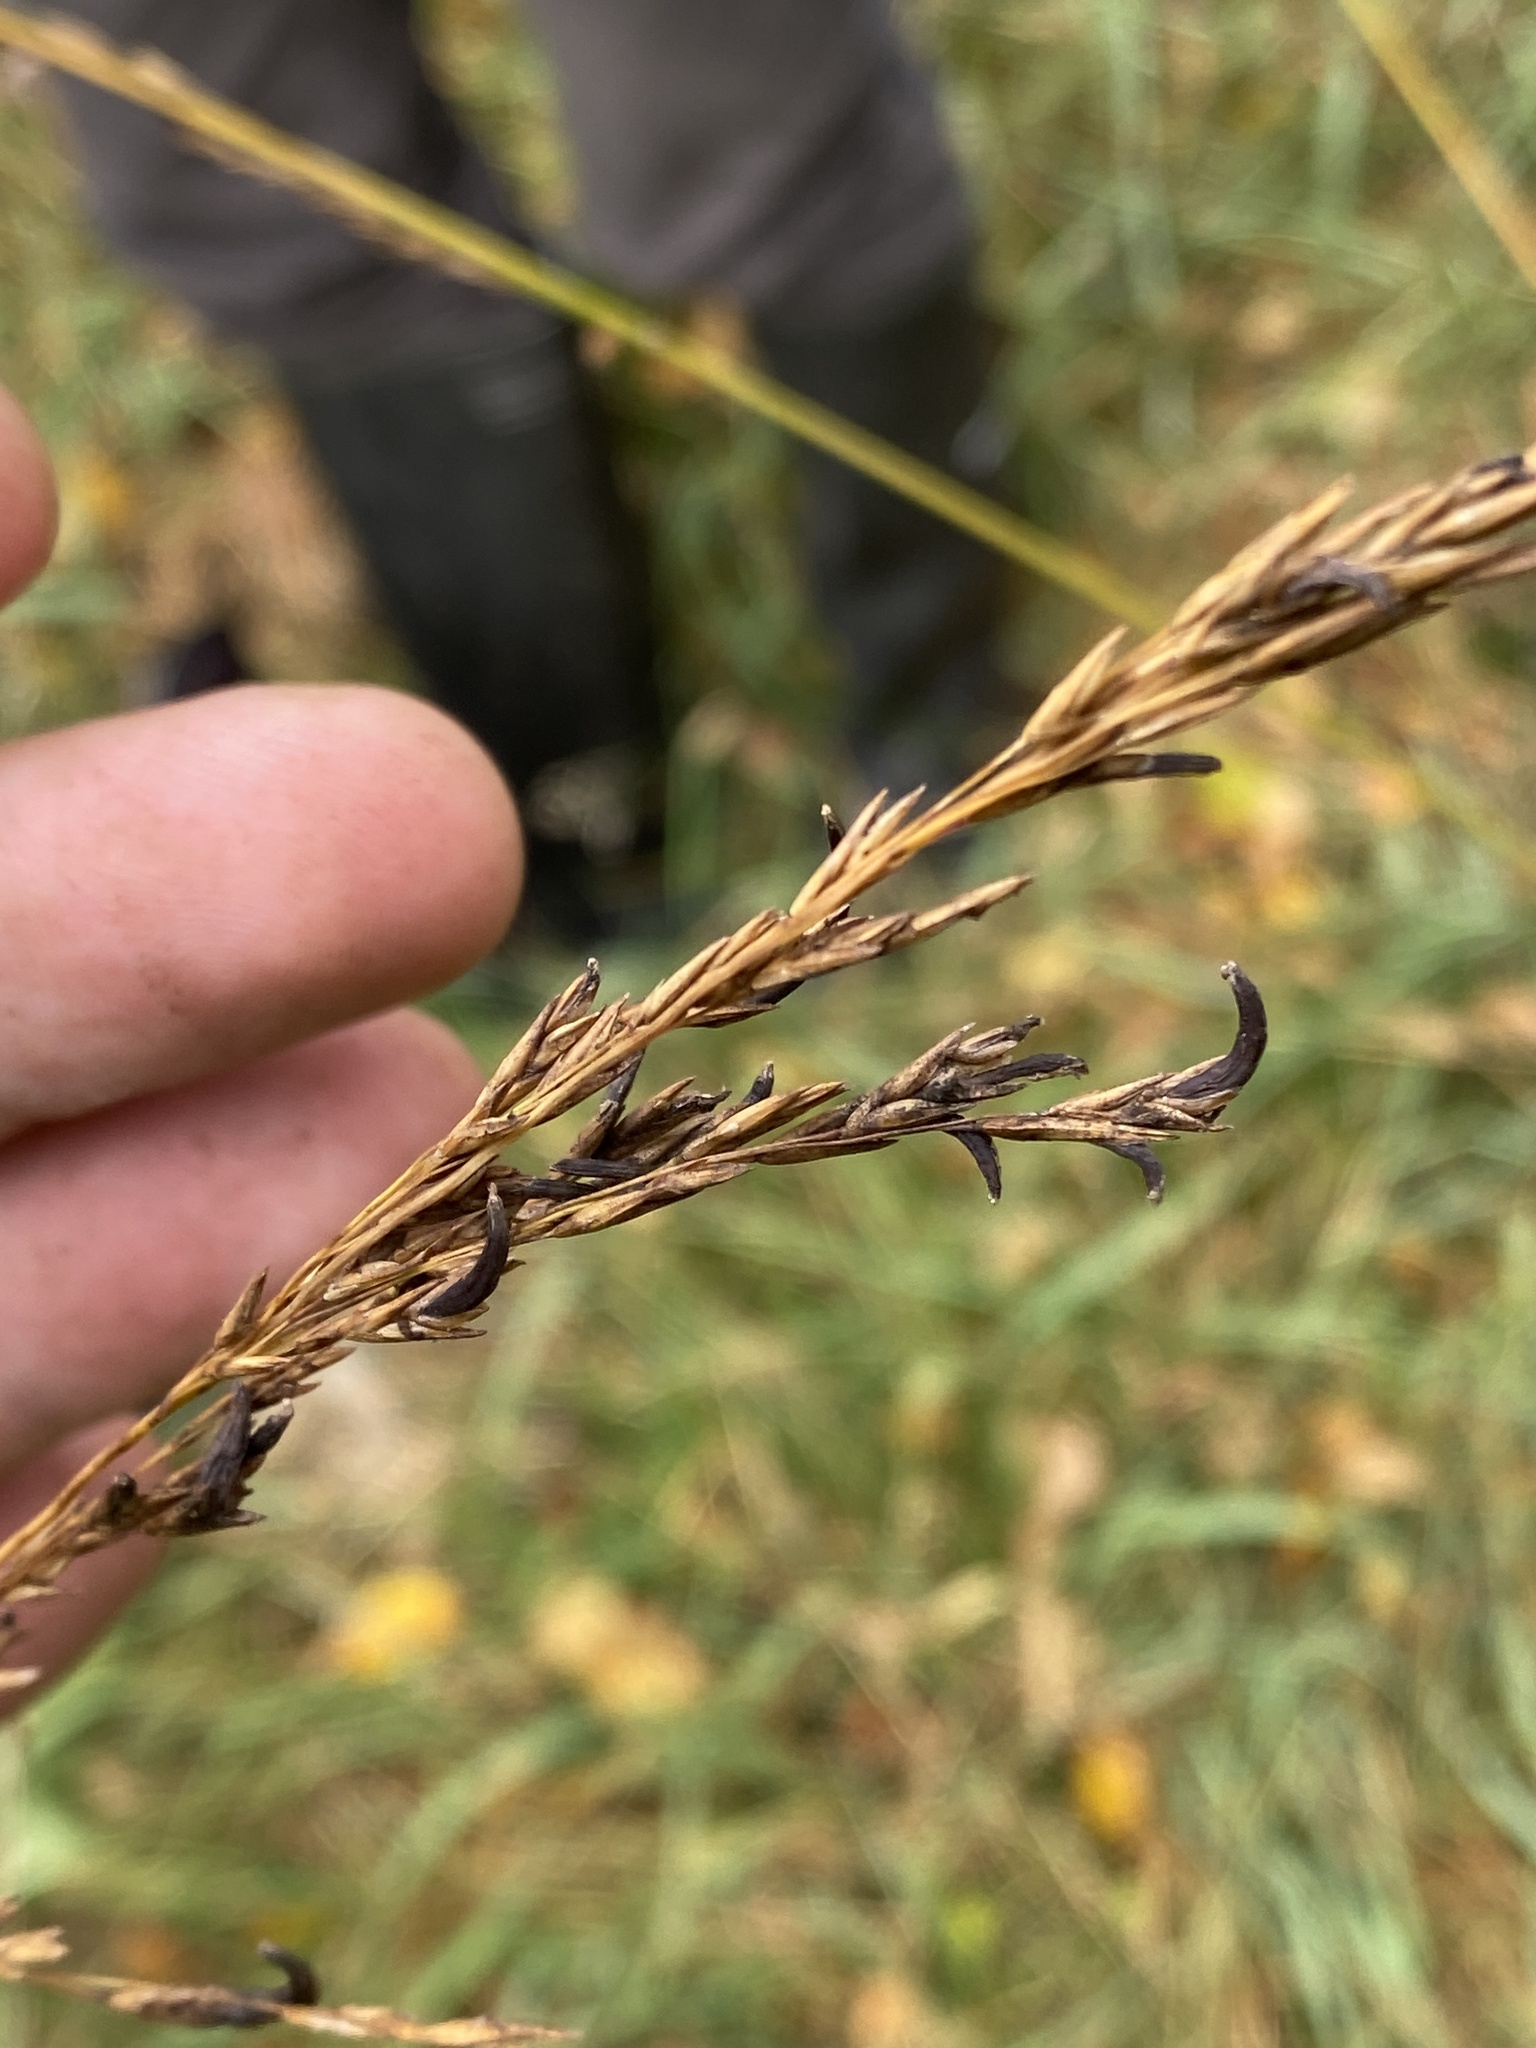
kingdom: Fungi
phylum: Ascomycota
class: Sordariomycetes
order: Hypocreales
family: Clavicipitaceae
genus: Claviceps
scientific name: Claviceps purpurea
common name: Rye ergot
